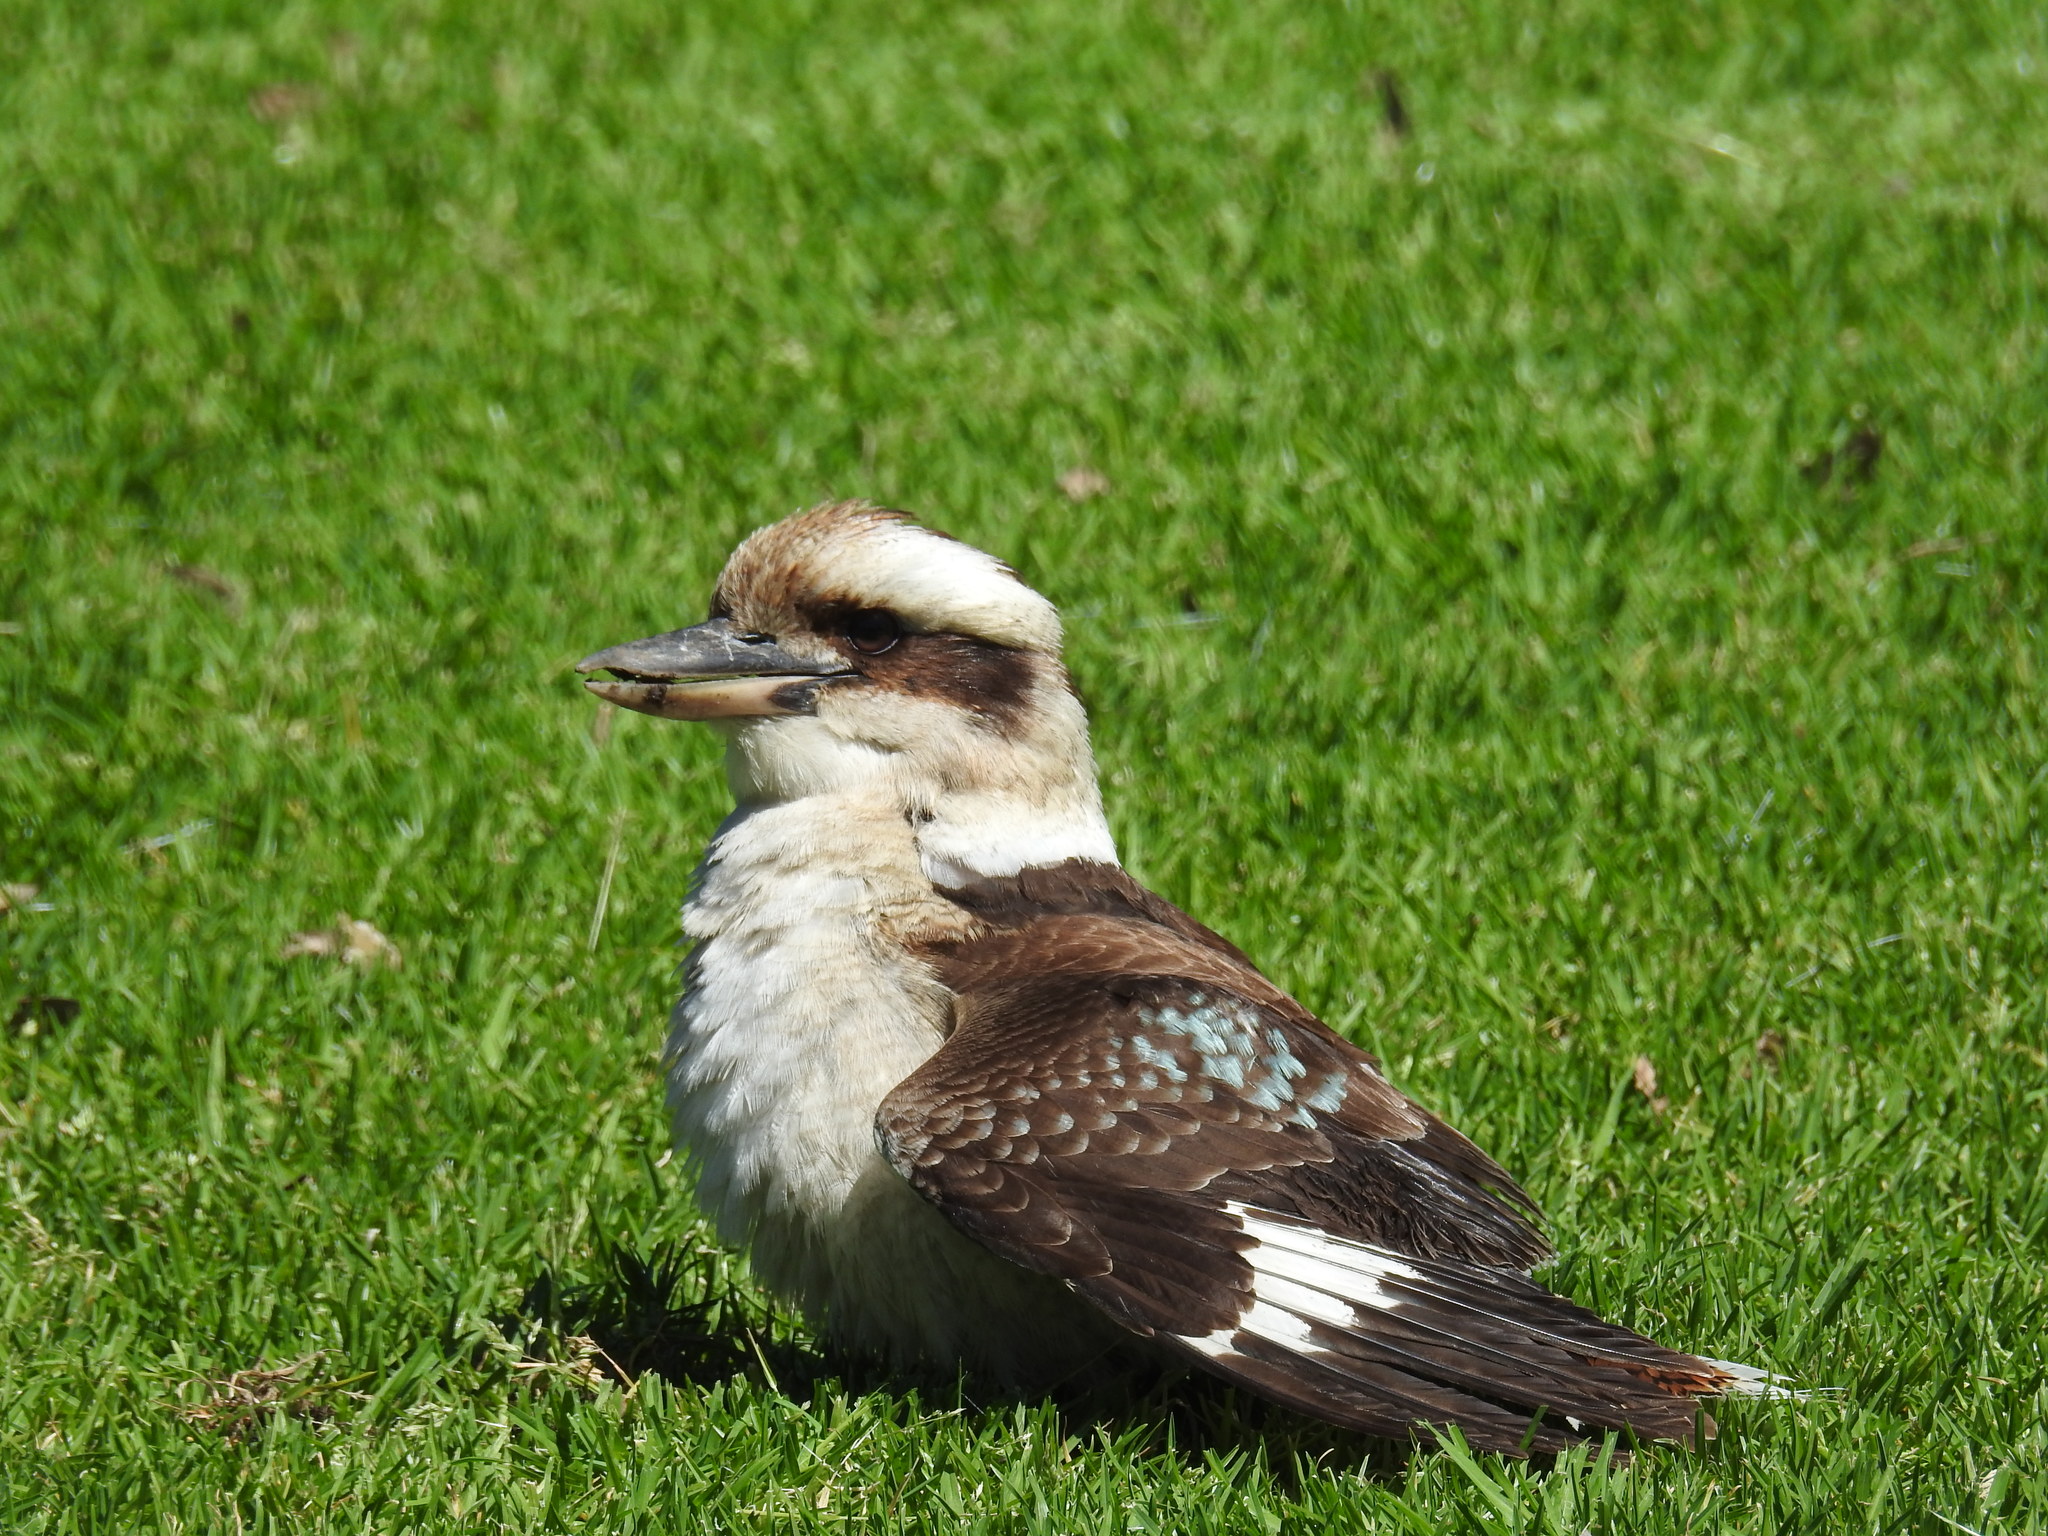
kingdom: Animalia
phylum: Chordata
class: Aves
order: Coraciiformes
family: Alcedinidae
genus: Dacelo
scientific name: Dacelo novaeguineae
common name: Laughing kookaburra
